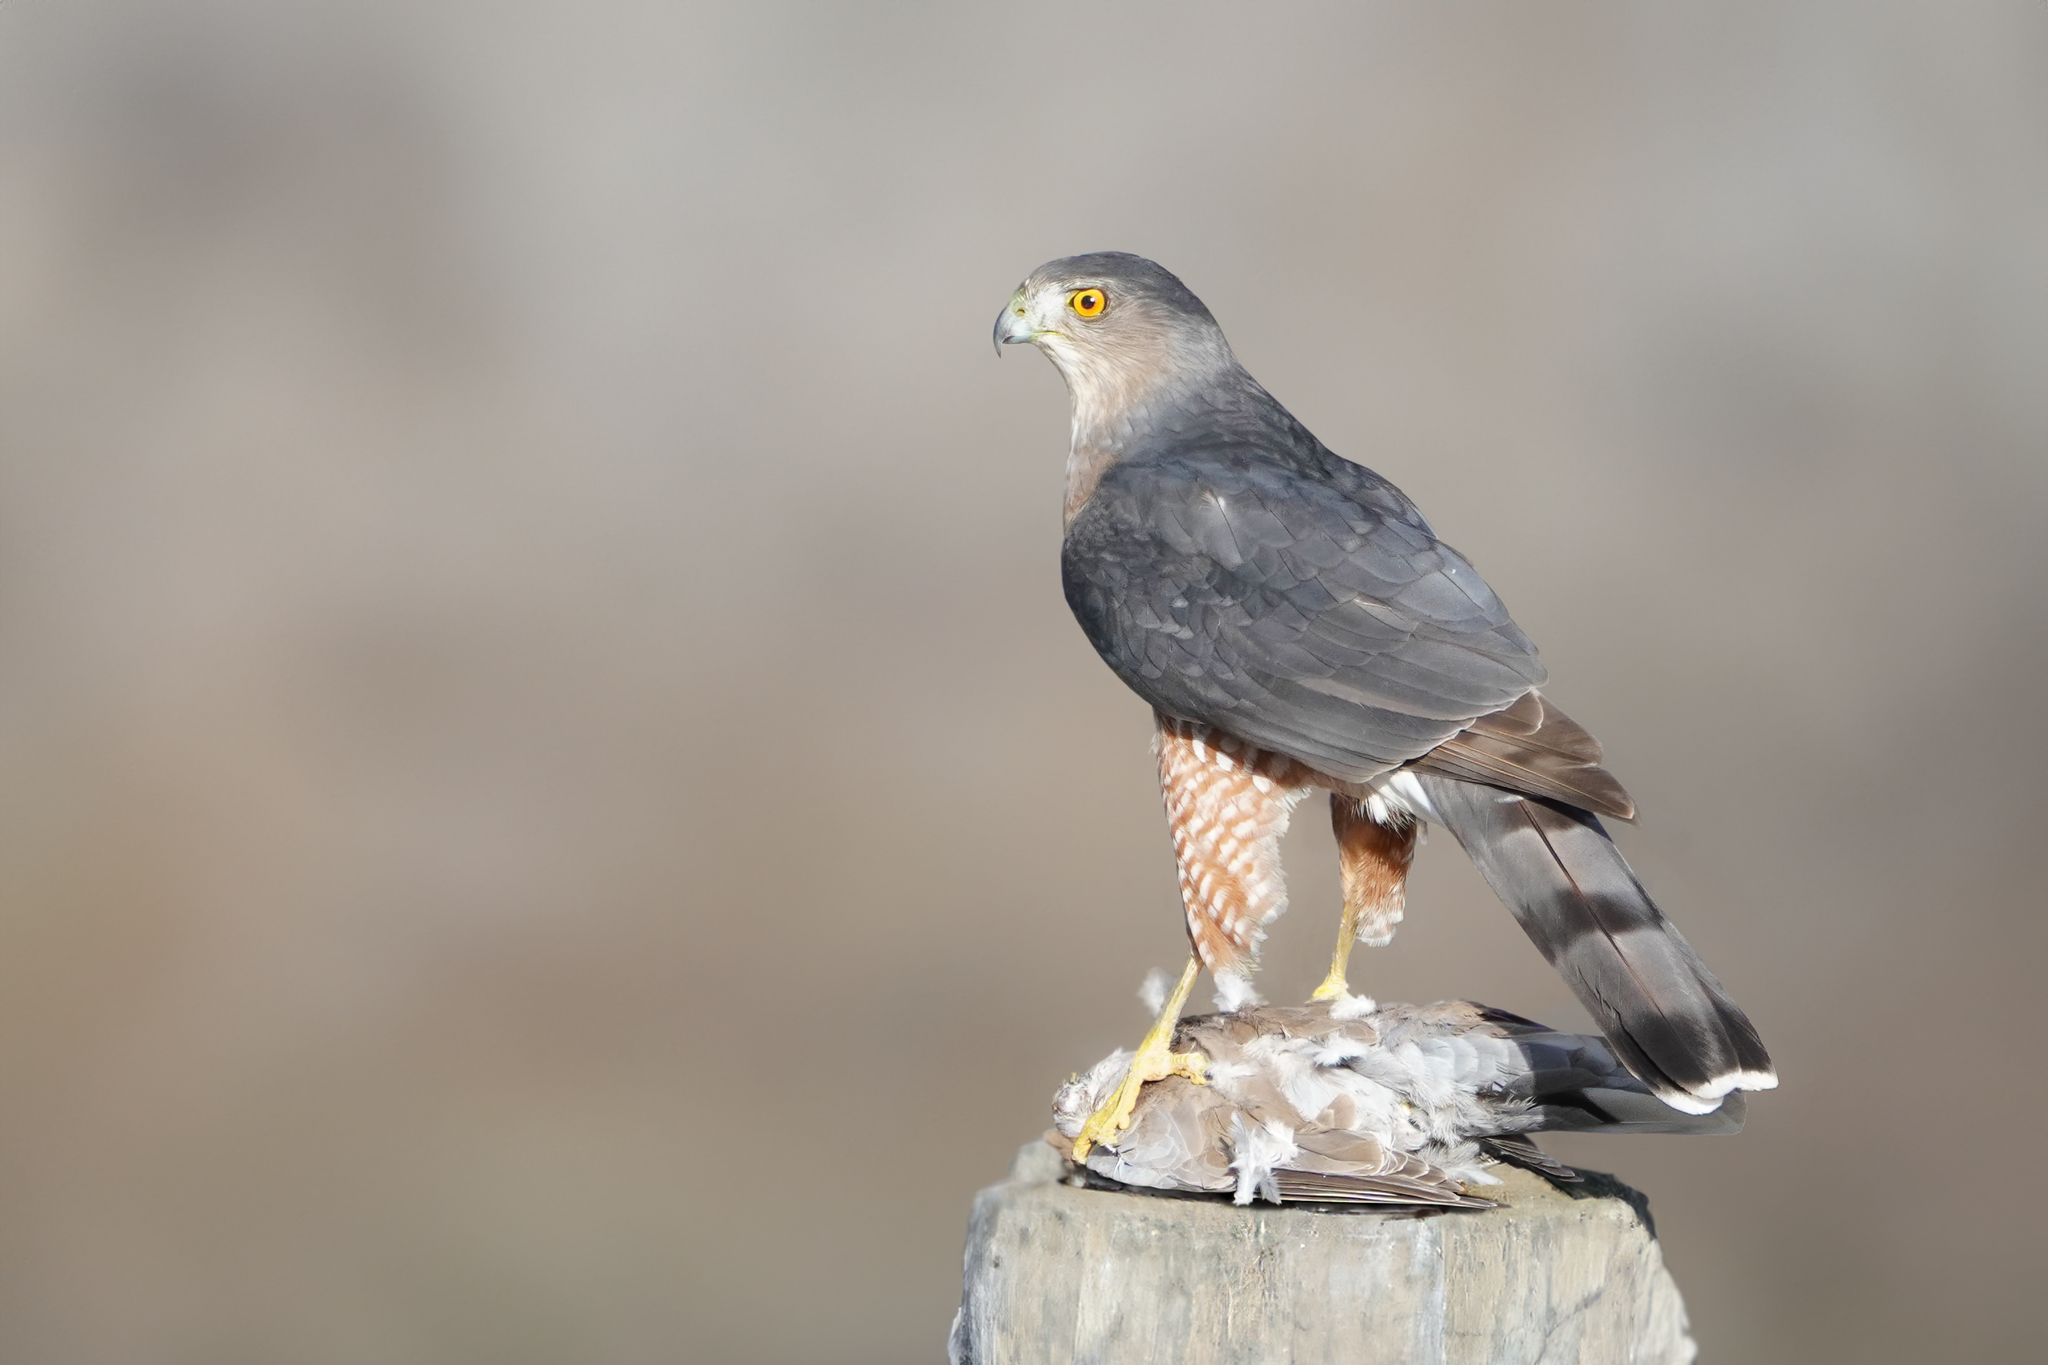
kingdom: Animalia
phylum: Chordata
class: Aves
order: Accipitriformes
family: Accipitridae
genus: Accipiter
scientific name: Accipiter cooperii
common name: Cooper's hawk
